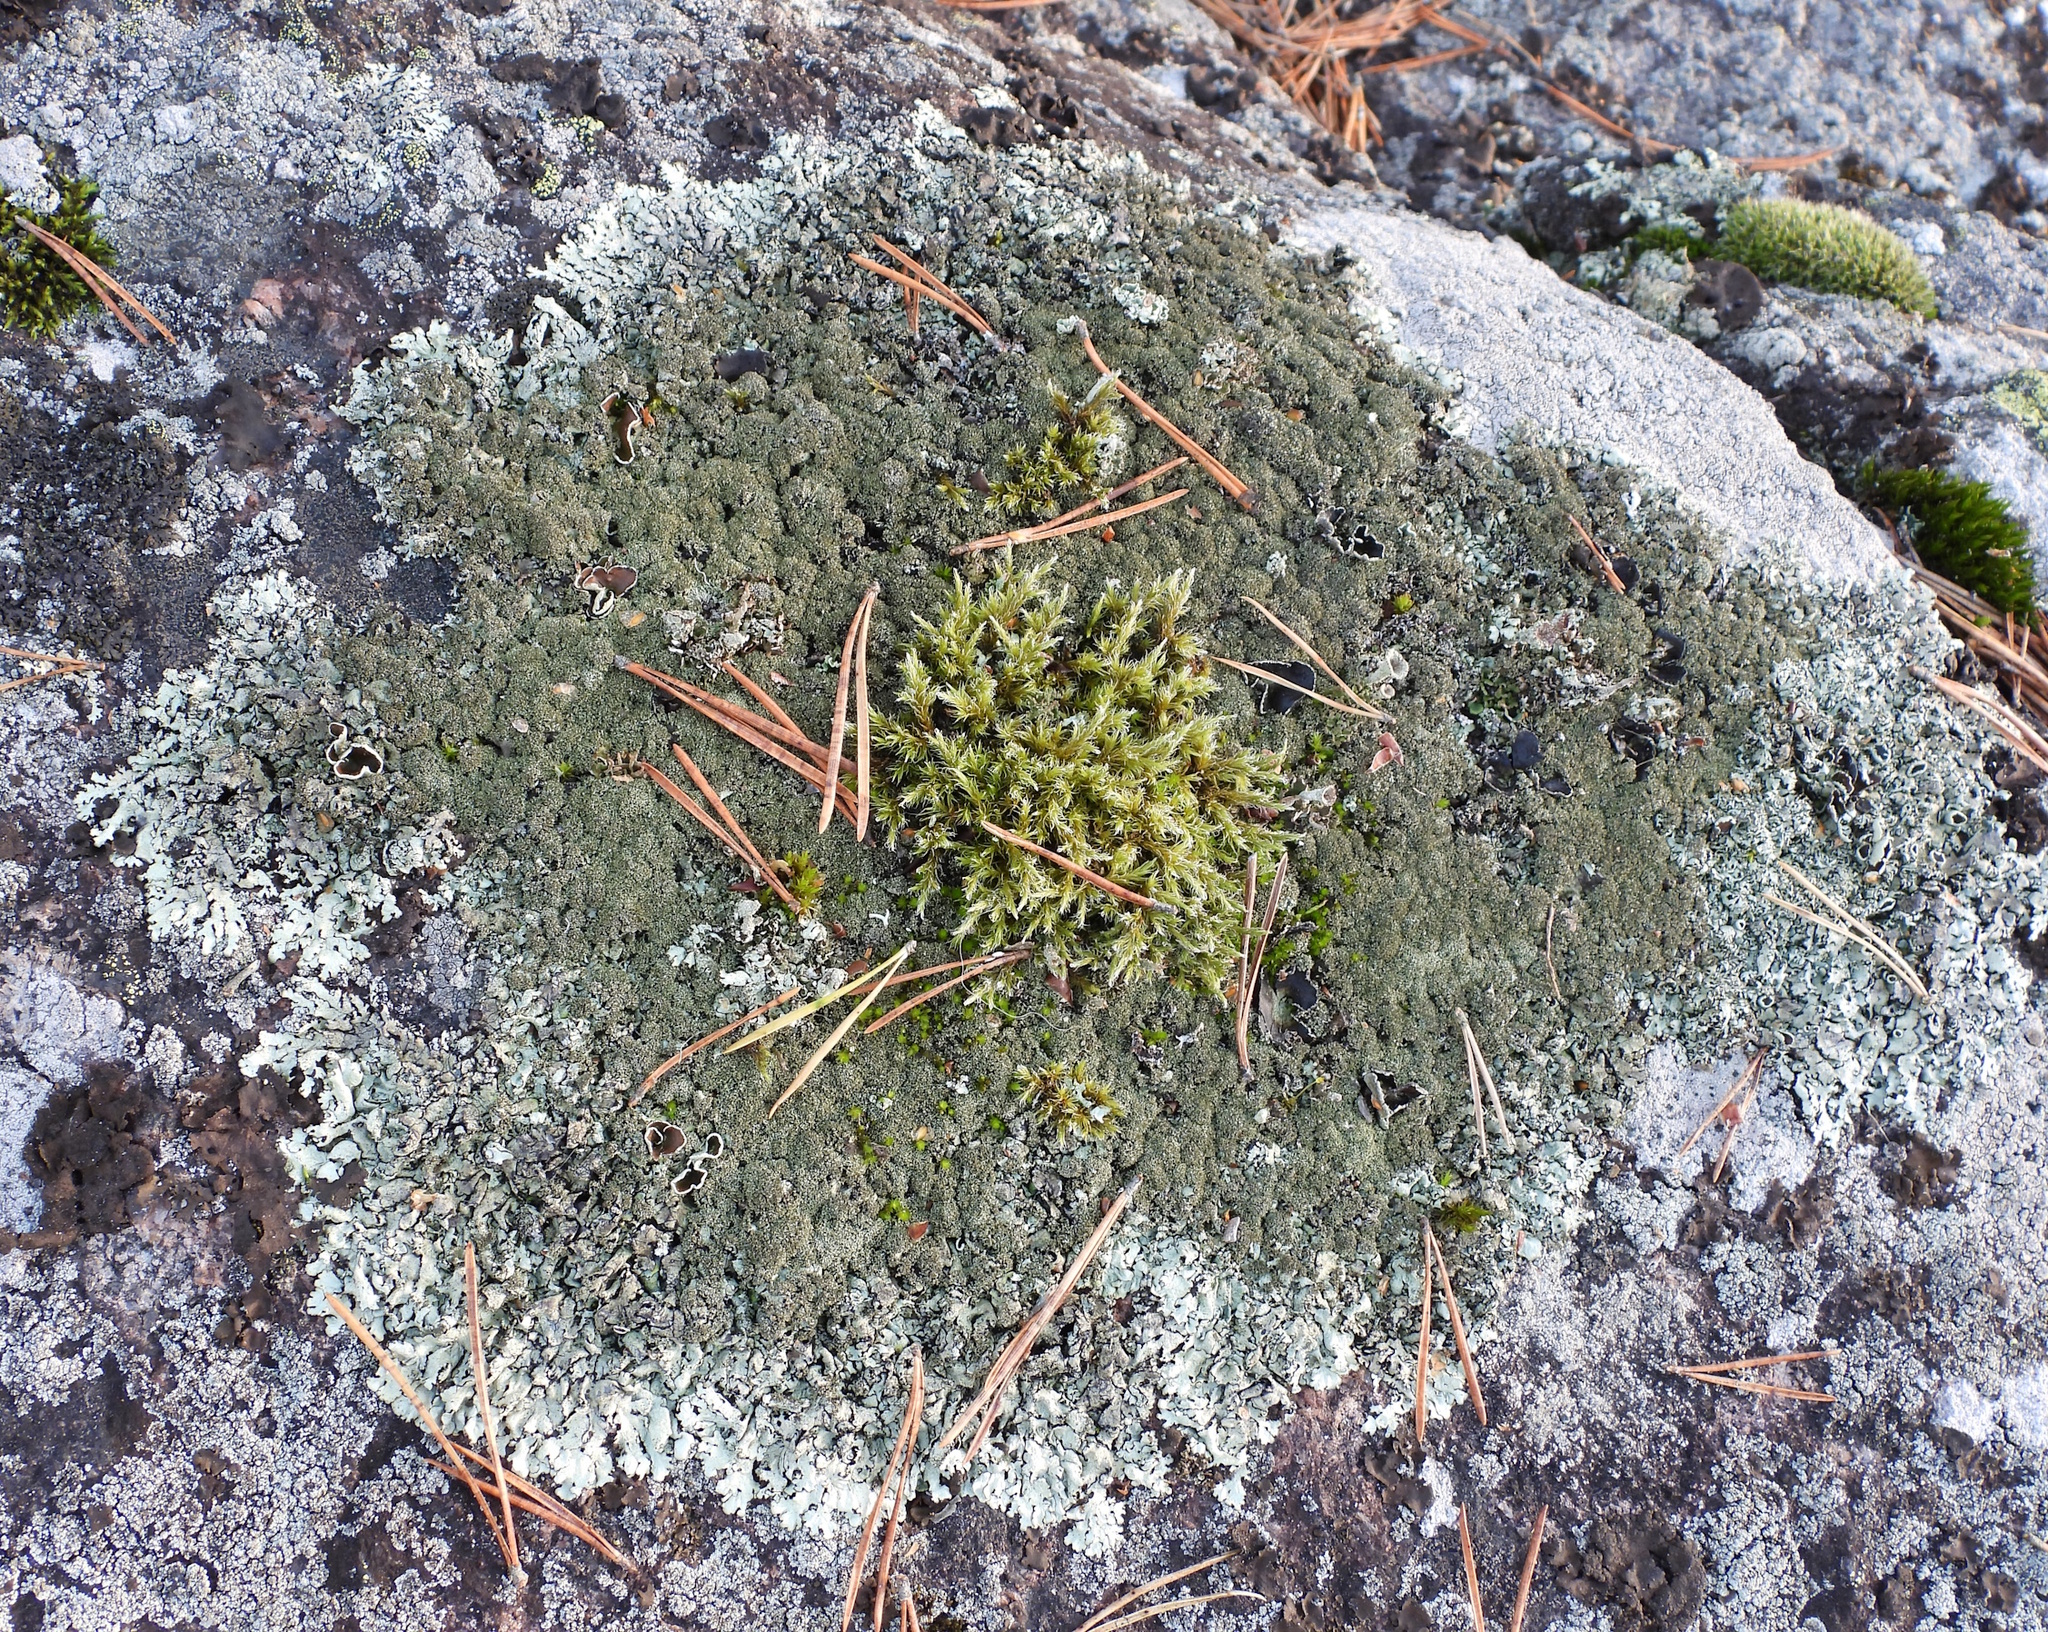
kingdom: Fungi
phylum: Ascomycota
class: Lecanoromycetes
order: Lecanorales
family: Parmeliaceae
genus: Xanthoparmelia
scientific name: Xanthoparmelia conspersa
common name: Peppered rock shield
